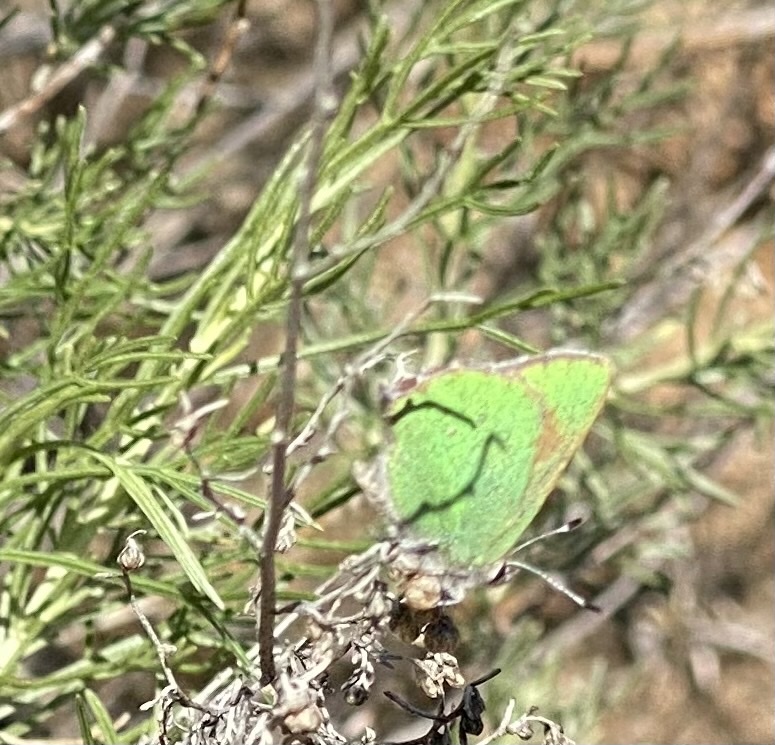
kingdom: Animalia
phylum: Arthropoda
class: Insecta
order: Lepidoptera
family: Lycaenidae
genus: Callophrys
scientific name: Callophrys dumetorum
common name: Bramble hairstreak
